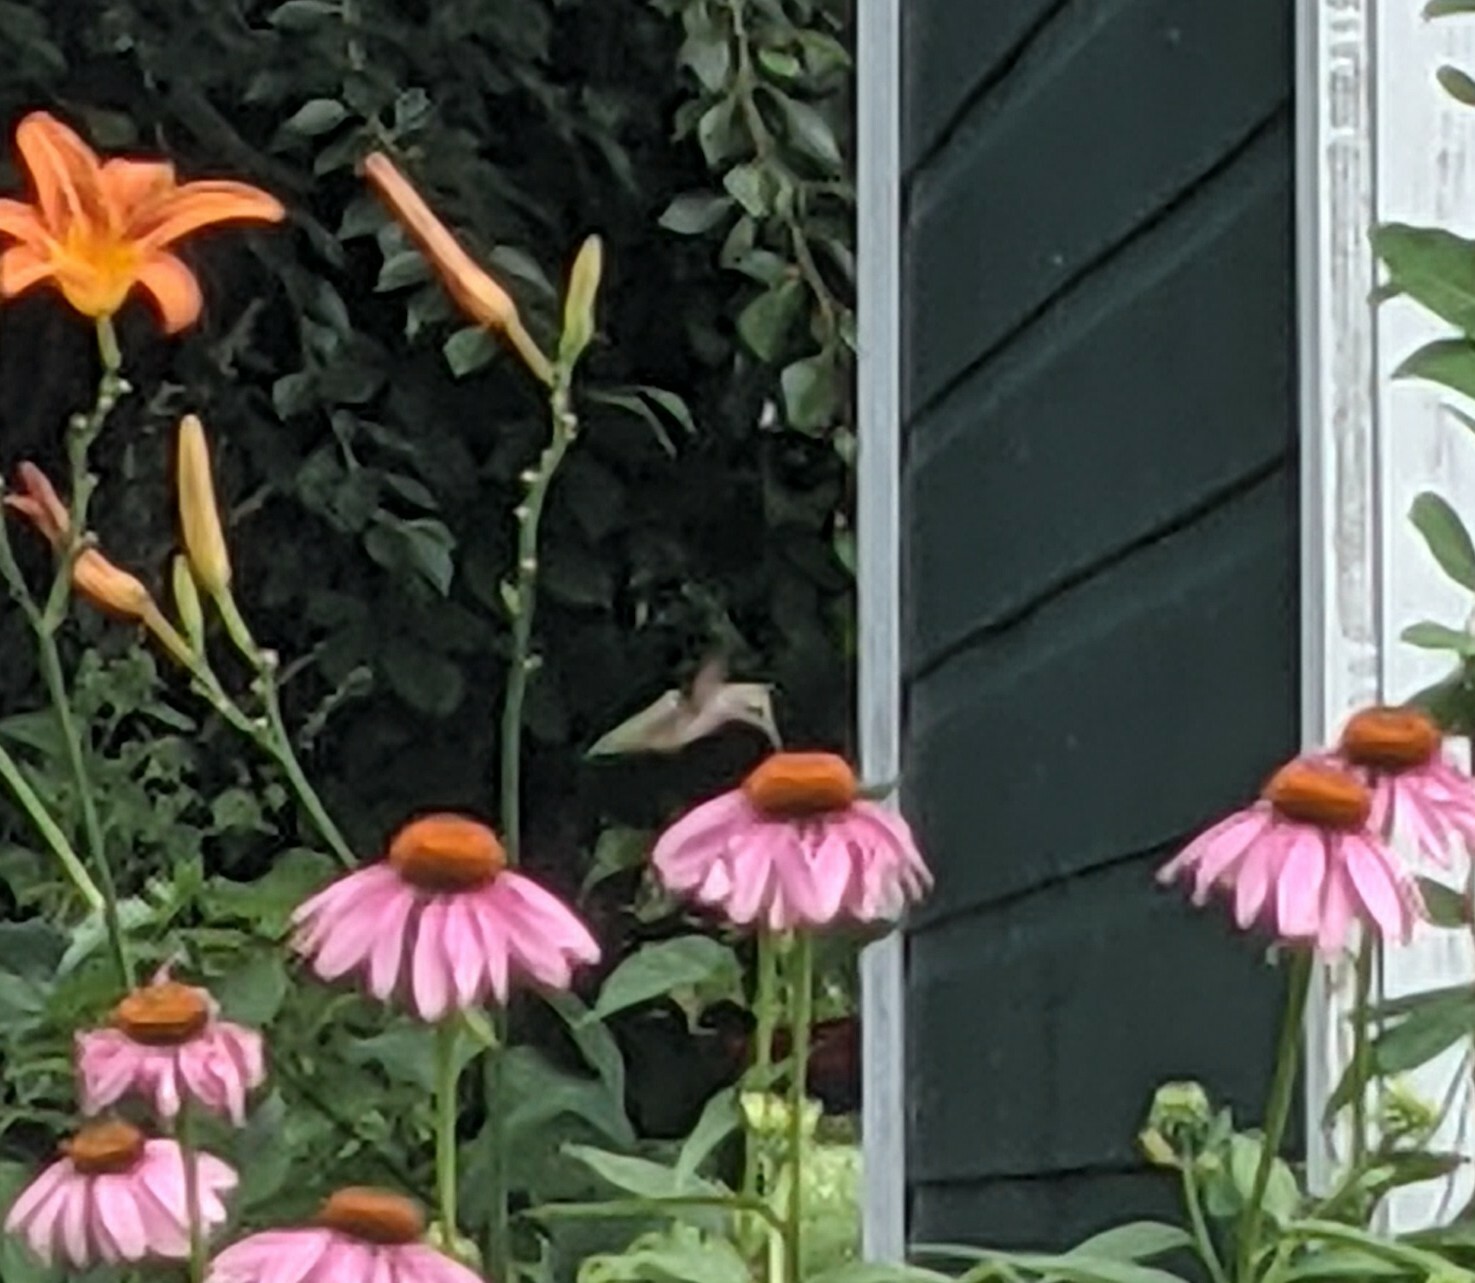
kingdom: Animalia
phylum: Chordata
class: Aves
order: Apodiformes
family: Trochilidae
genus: Archilochus
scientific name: Archilochus colubris
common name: Ruby-throated hummingbird
